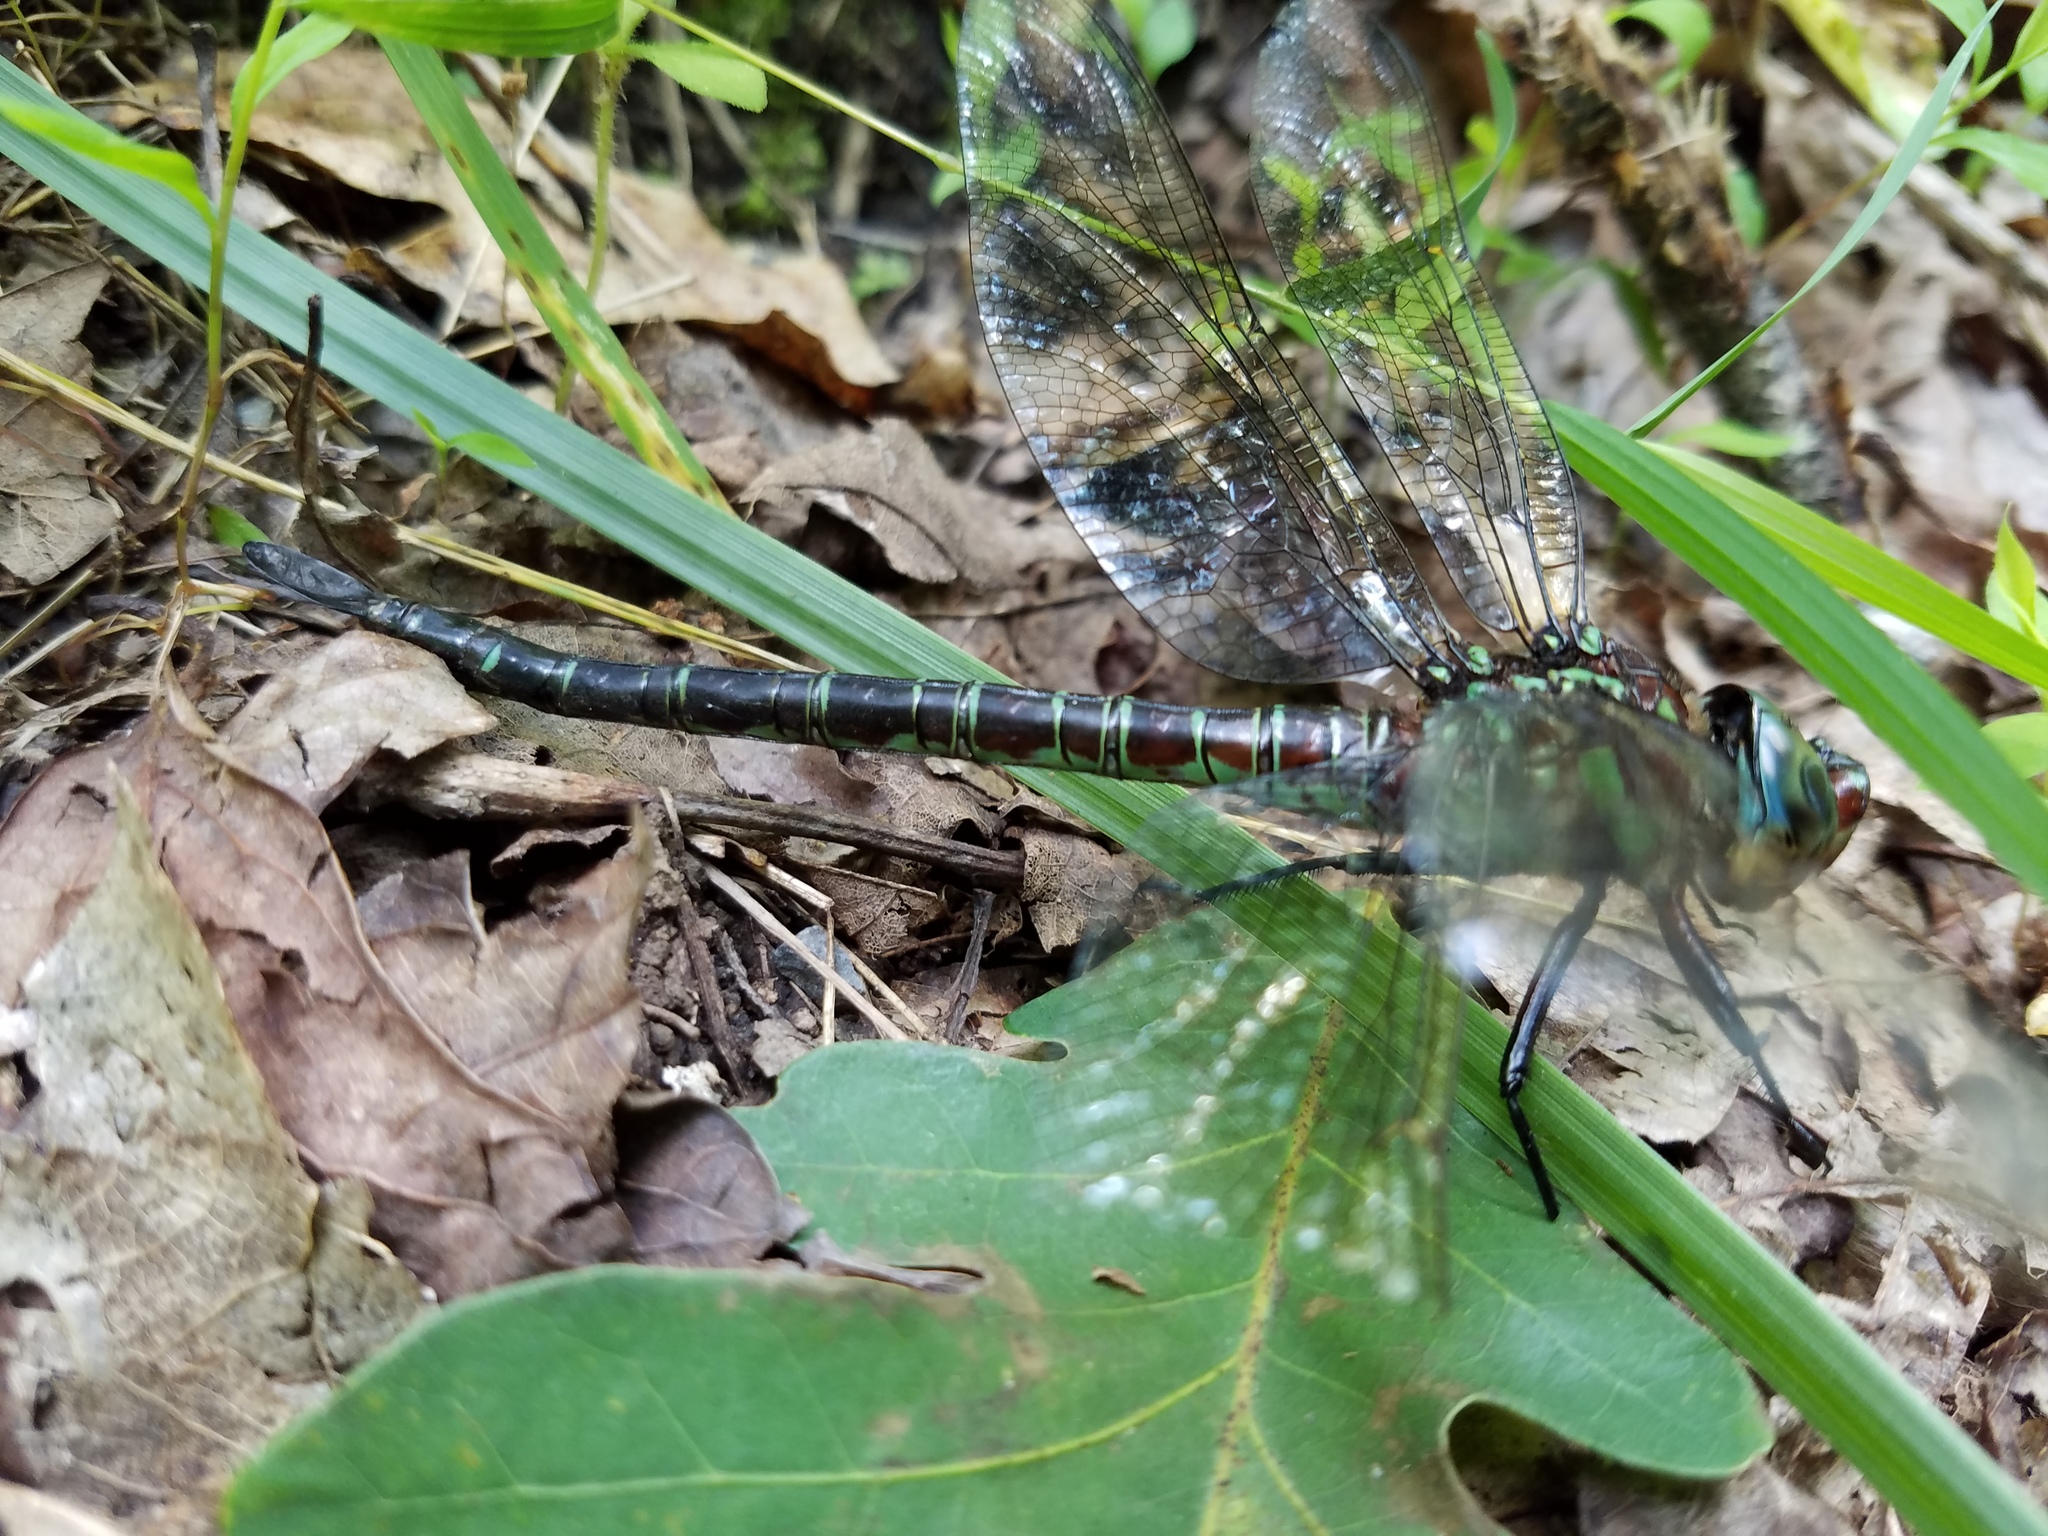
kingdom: Animalia
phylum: Arthropoda
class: Insecta
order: Odonata
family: Aeshnidae
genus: Epiaeschna
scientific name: Epiaeschna heros
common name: Swamp darner
